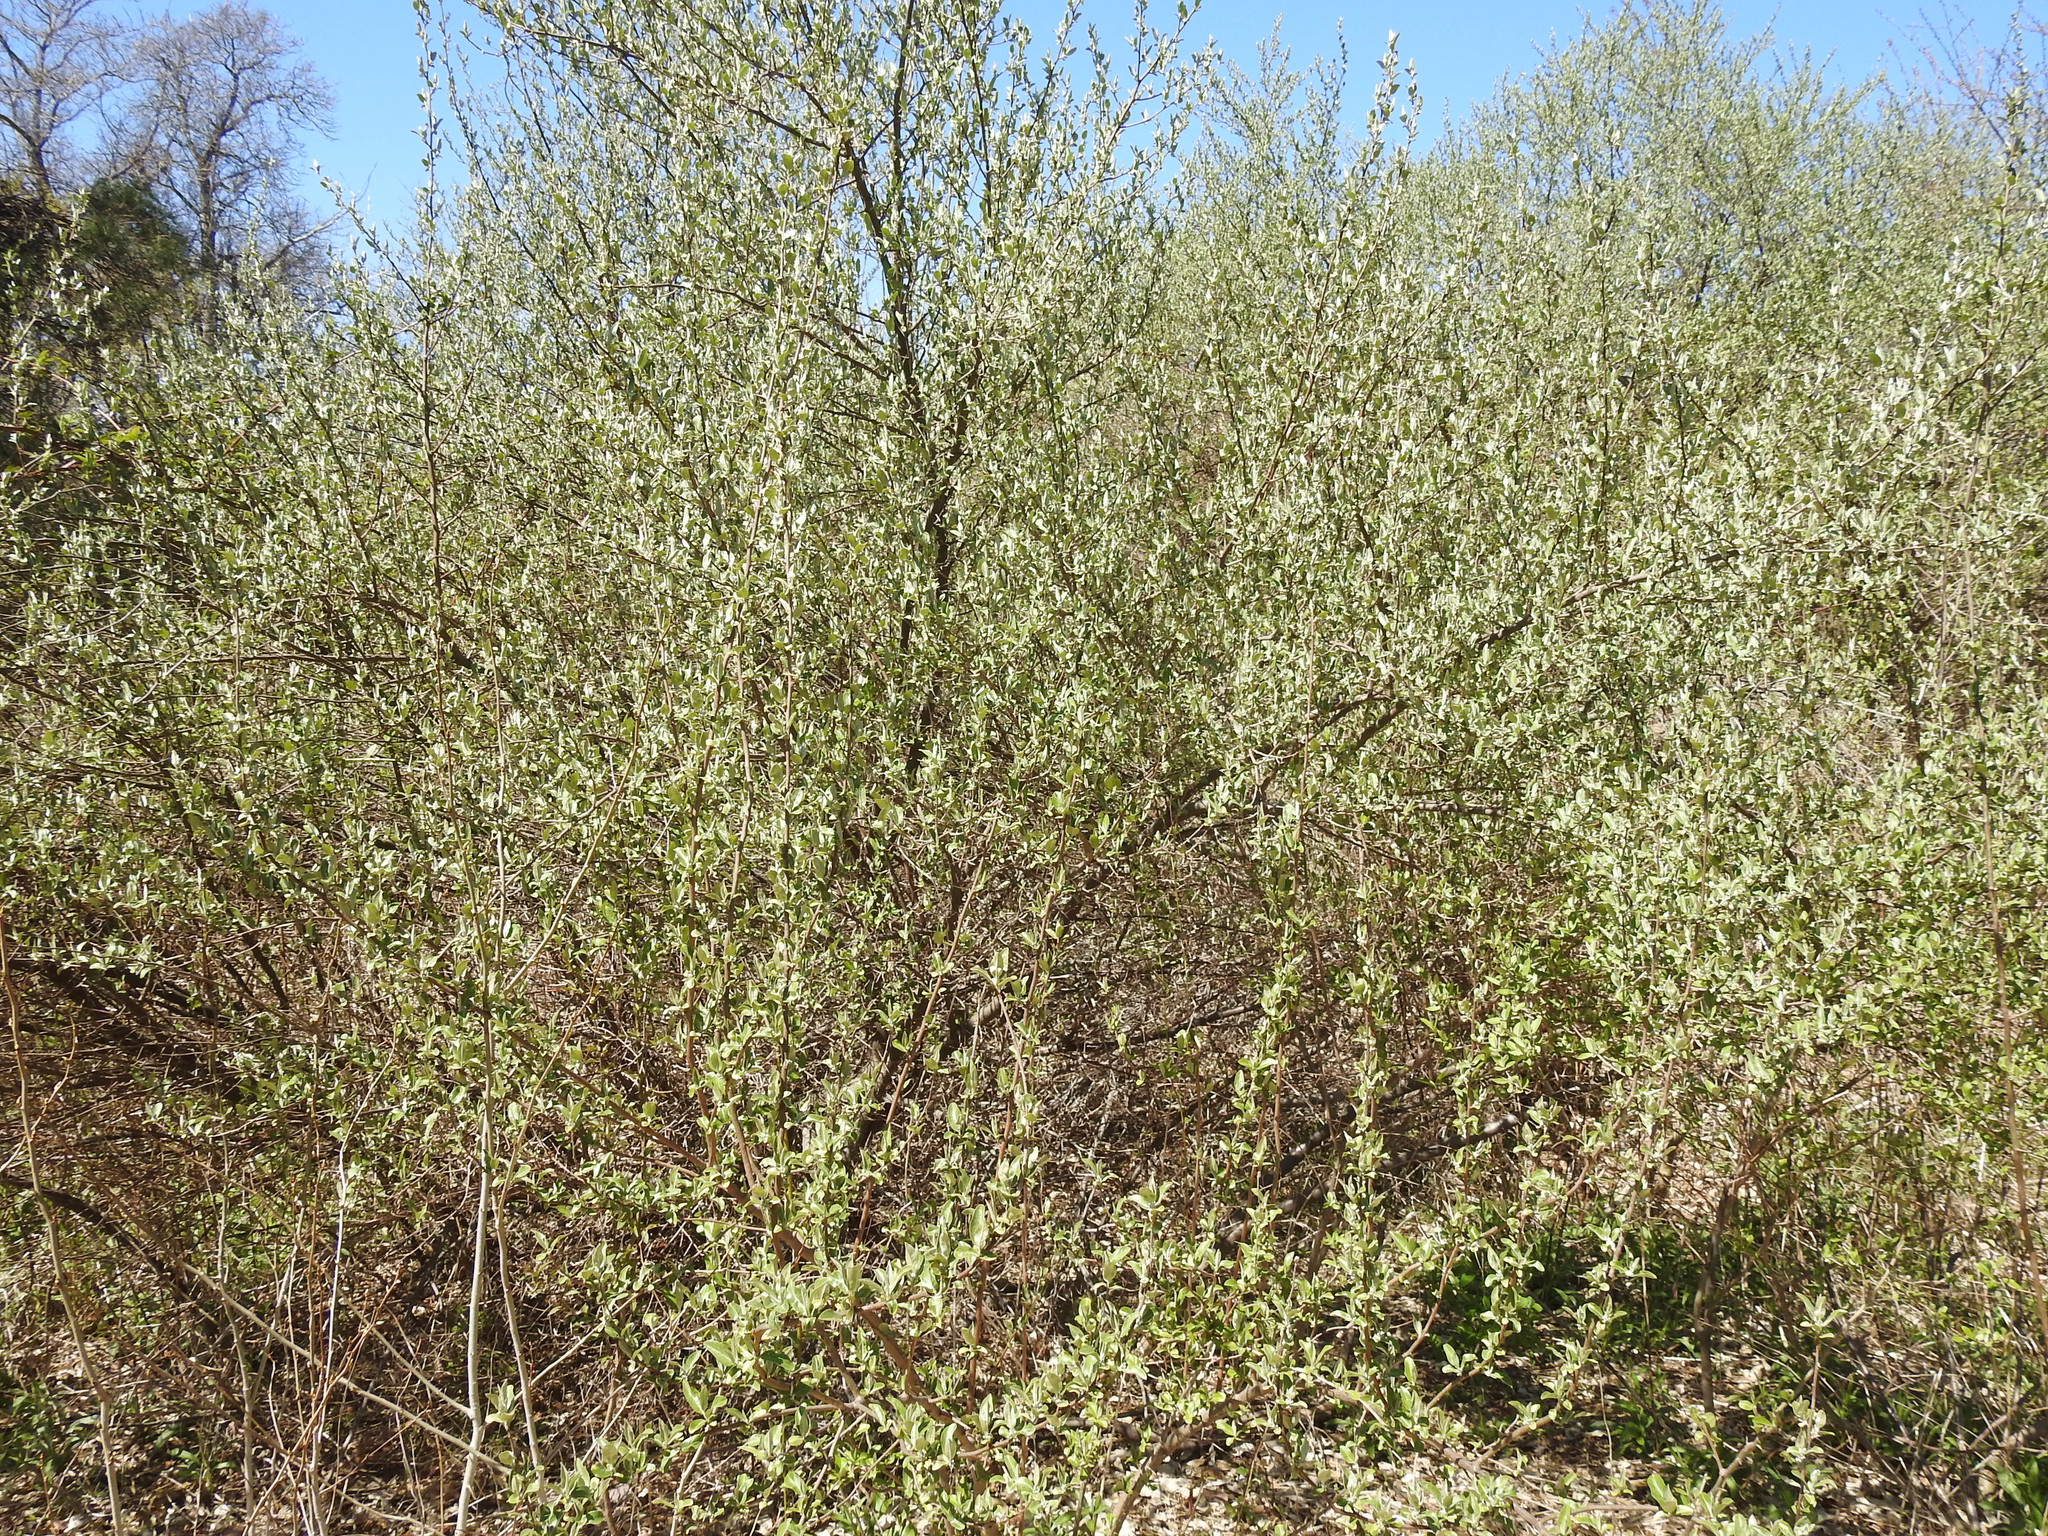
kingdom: Plantae
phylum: Tracheophyta
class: Magnoliopsida
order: Rosales
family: Elaeagnaceae
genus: Elaeagnus
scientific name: Elaeagnus umbellata
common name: Autumn olive
